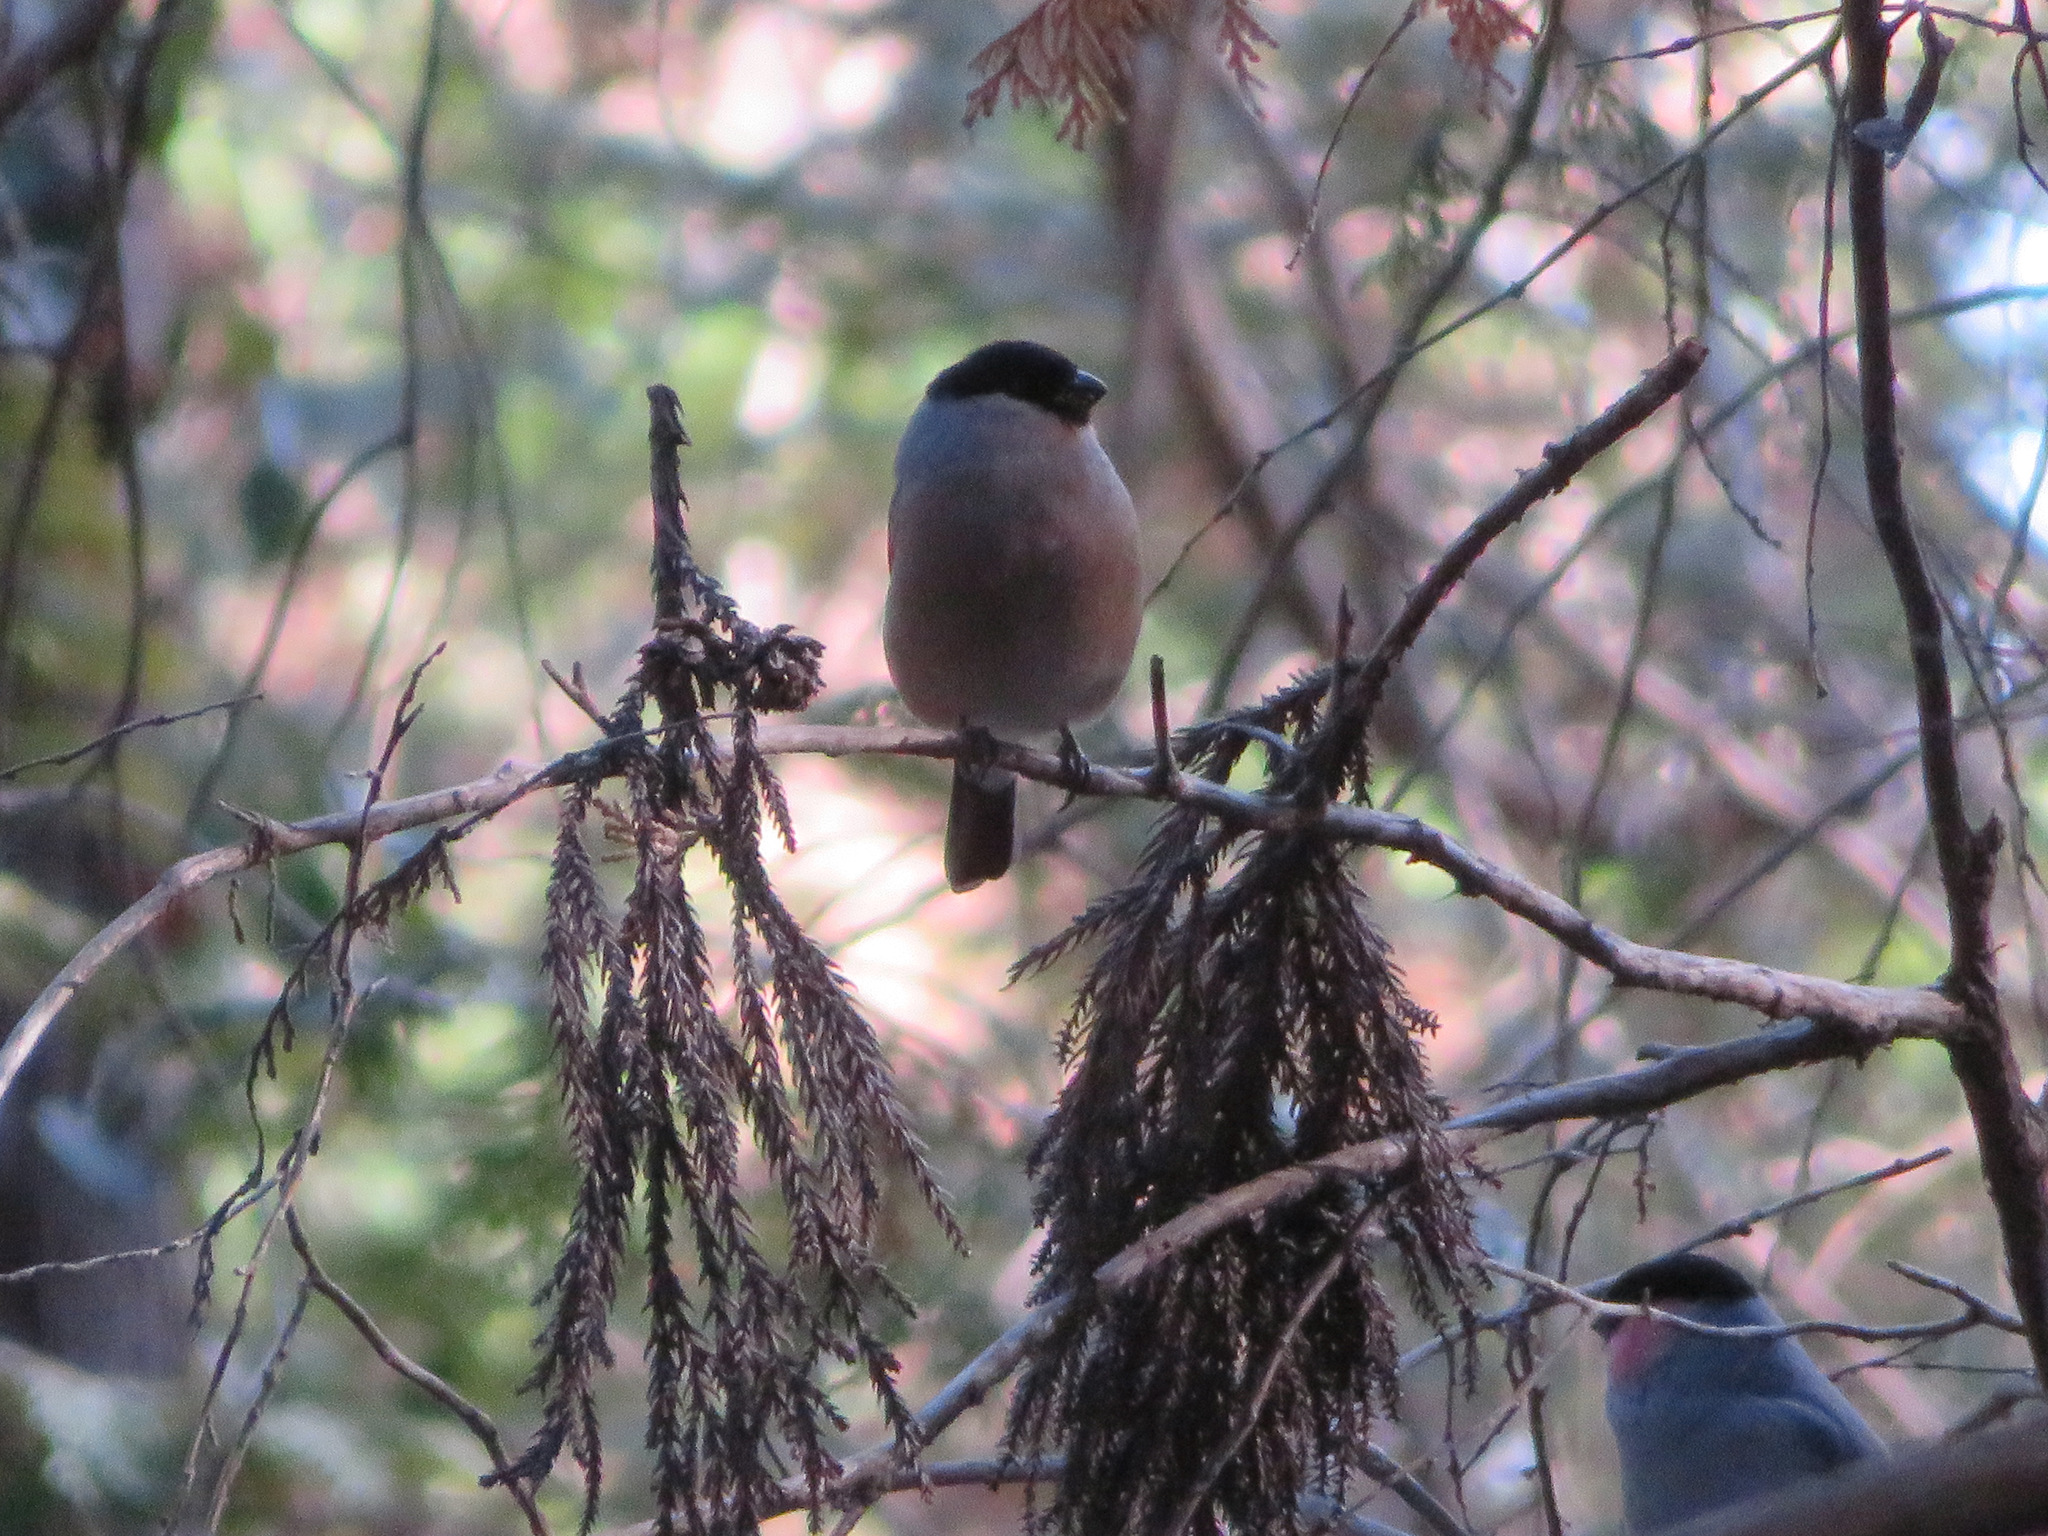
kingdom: Animalia
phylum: Chordata
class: Aves
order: Passeriformes
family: Fringillidae
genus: Pyrrhula
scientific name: Pyrrhula pyrrhula
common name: Eurasian bullfinch
